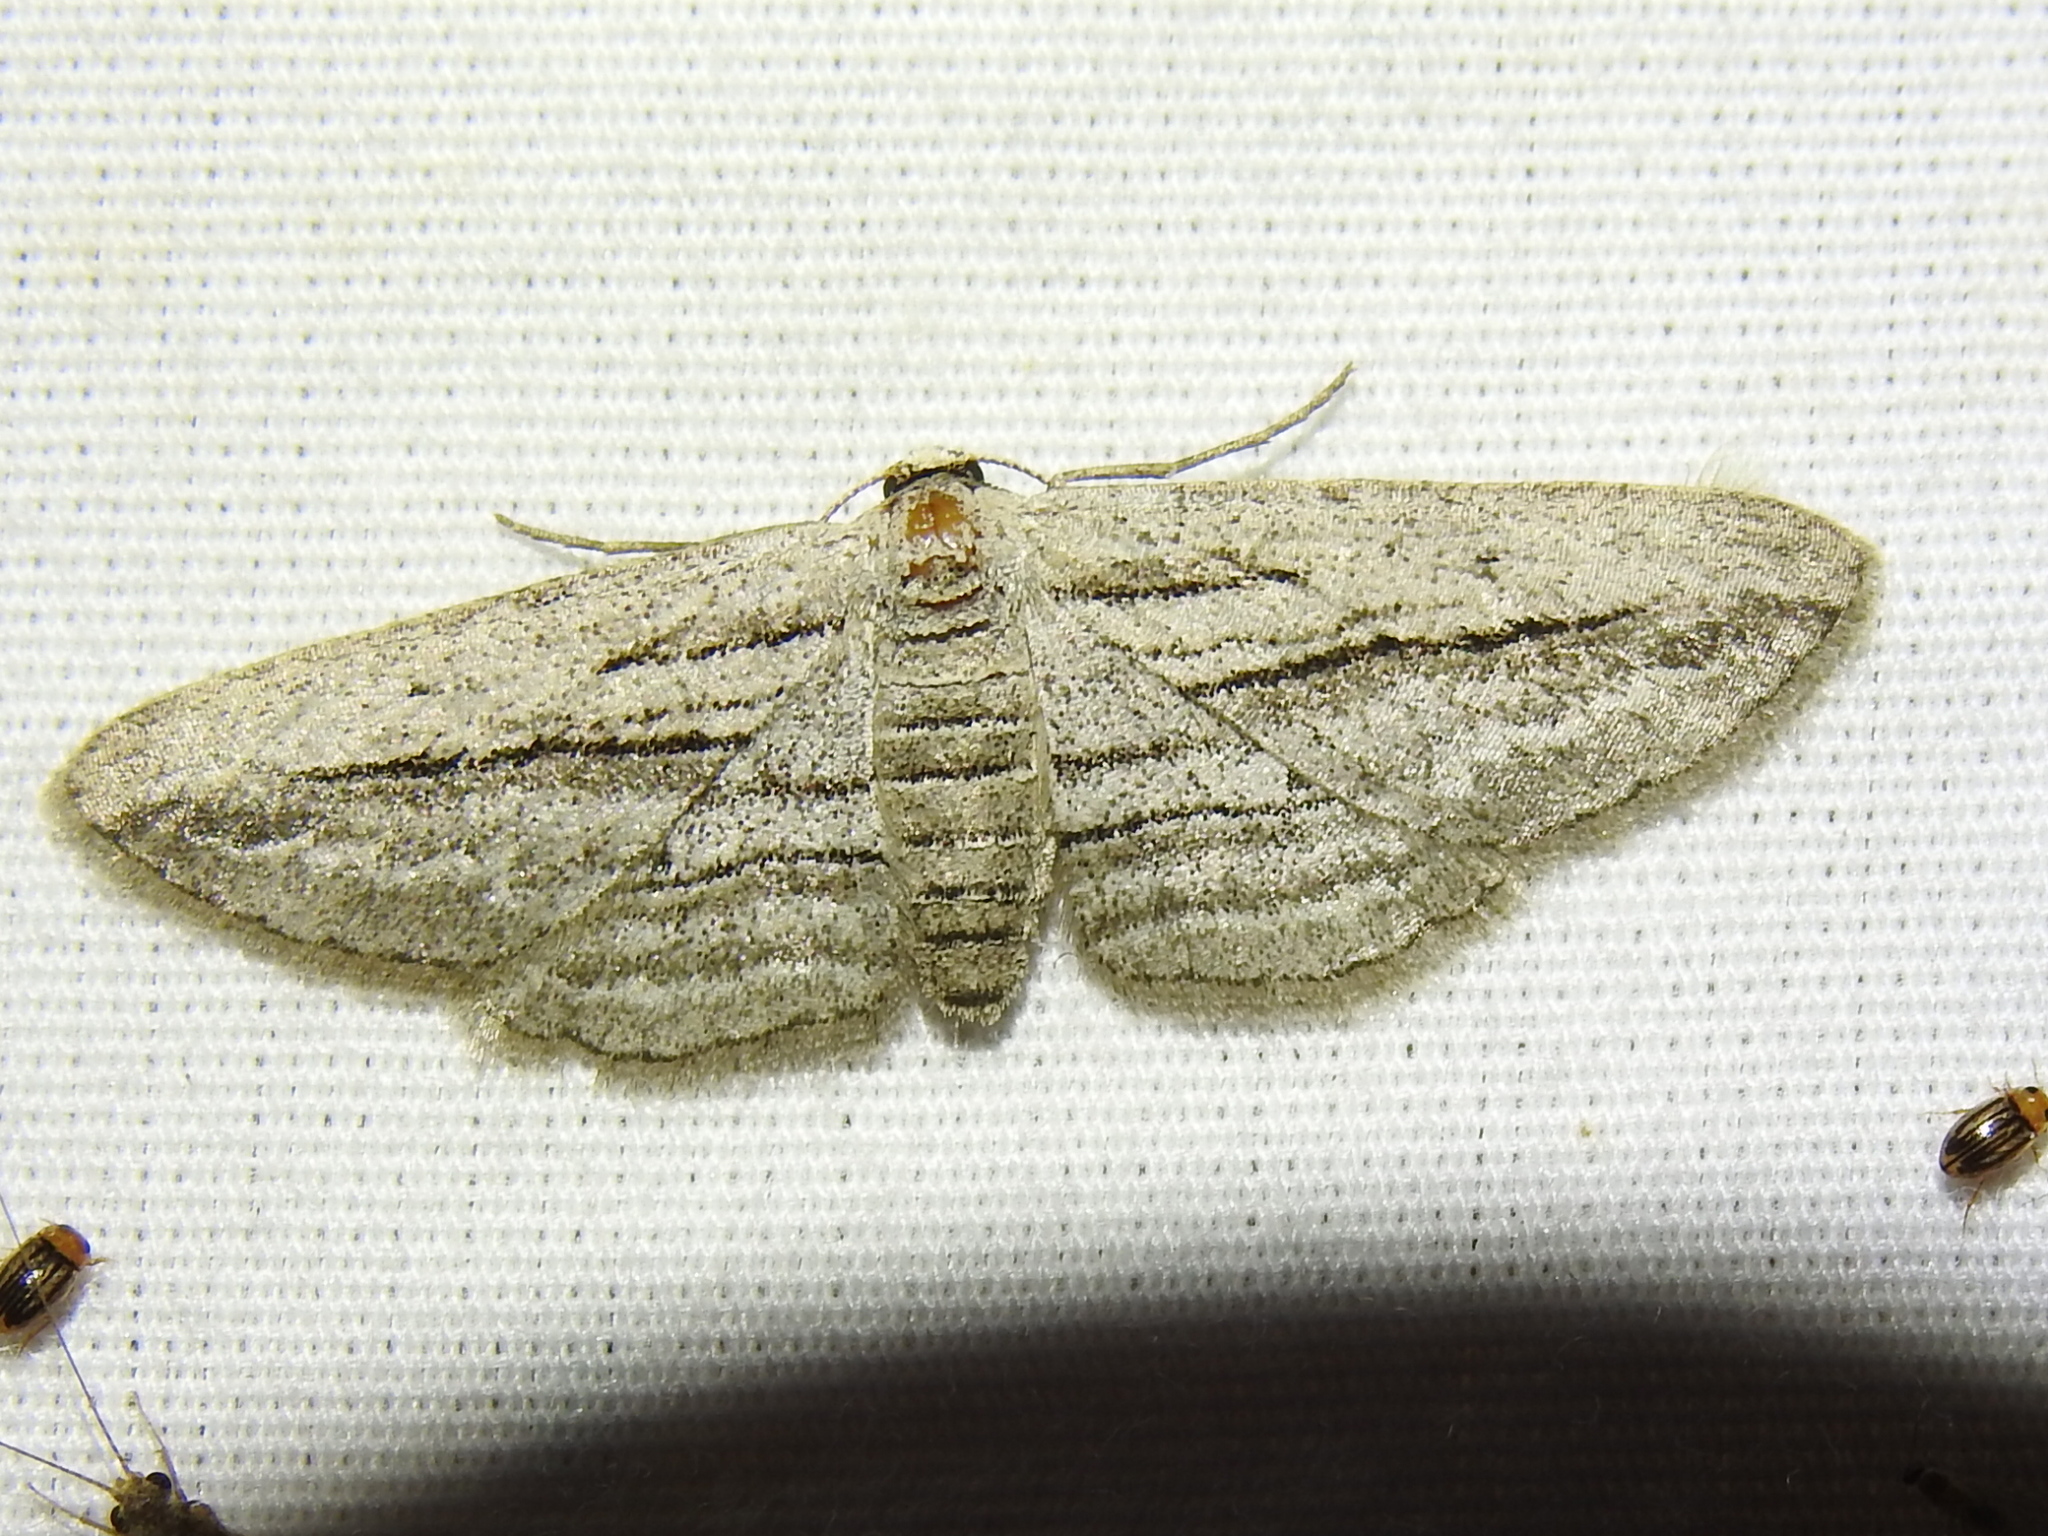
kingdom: Animalia
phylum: Arthropoda
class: Insecta
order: Lepidoptera
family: Geometridae
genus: Glena
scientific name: Glena quinquelinearia
